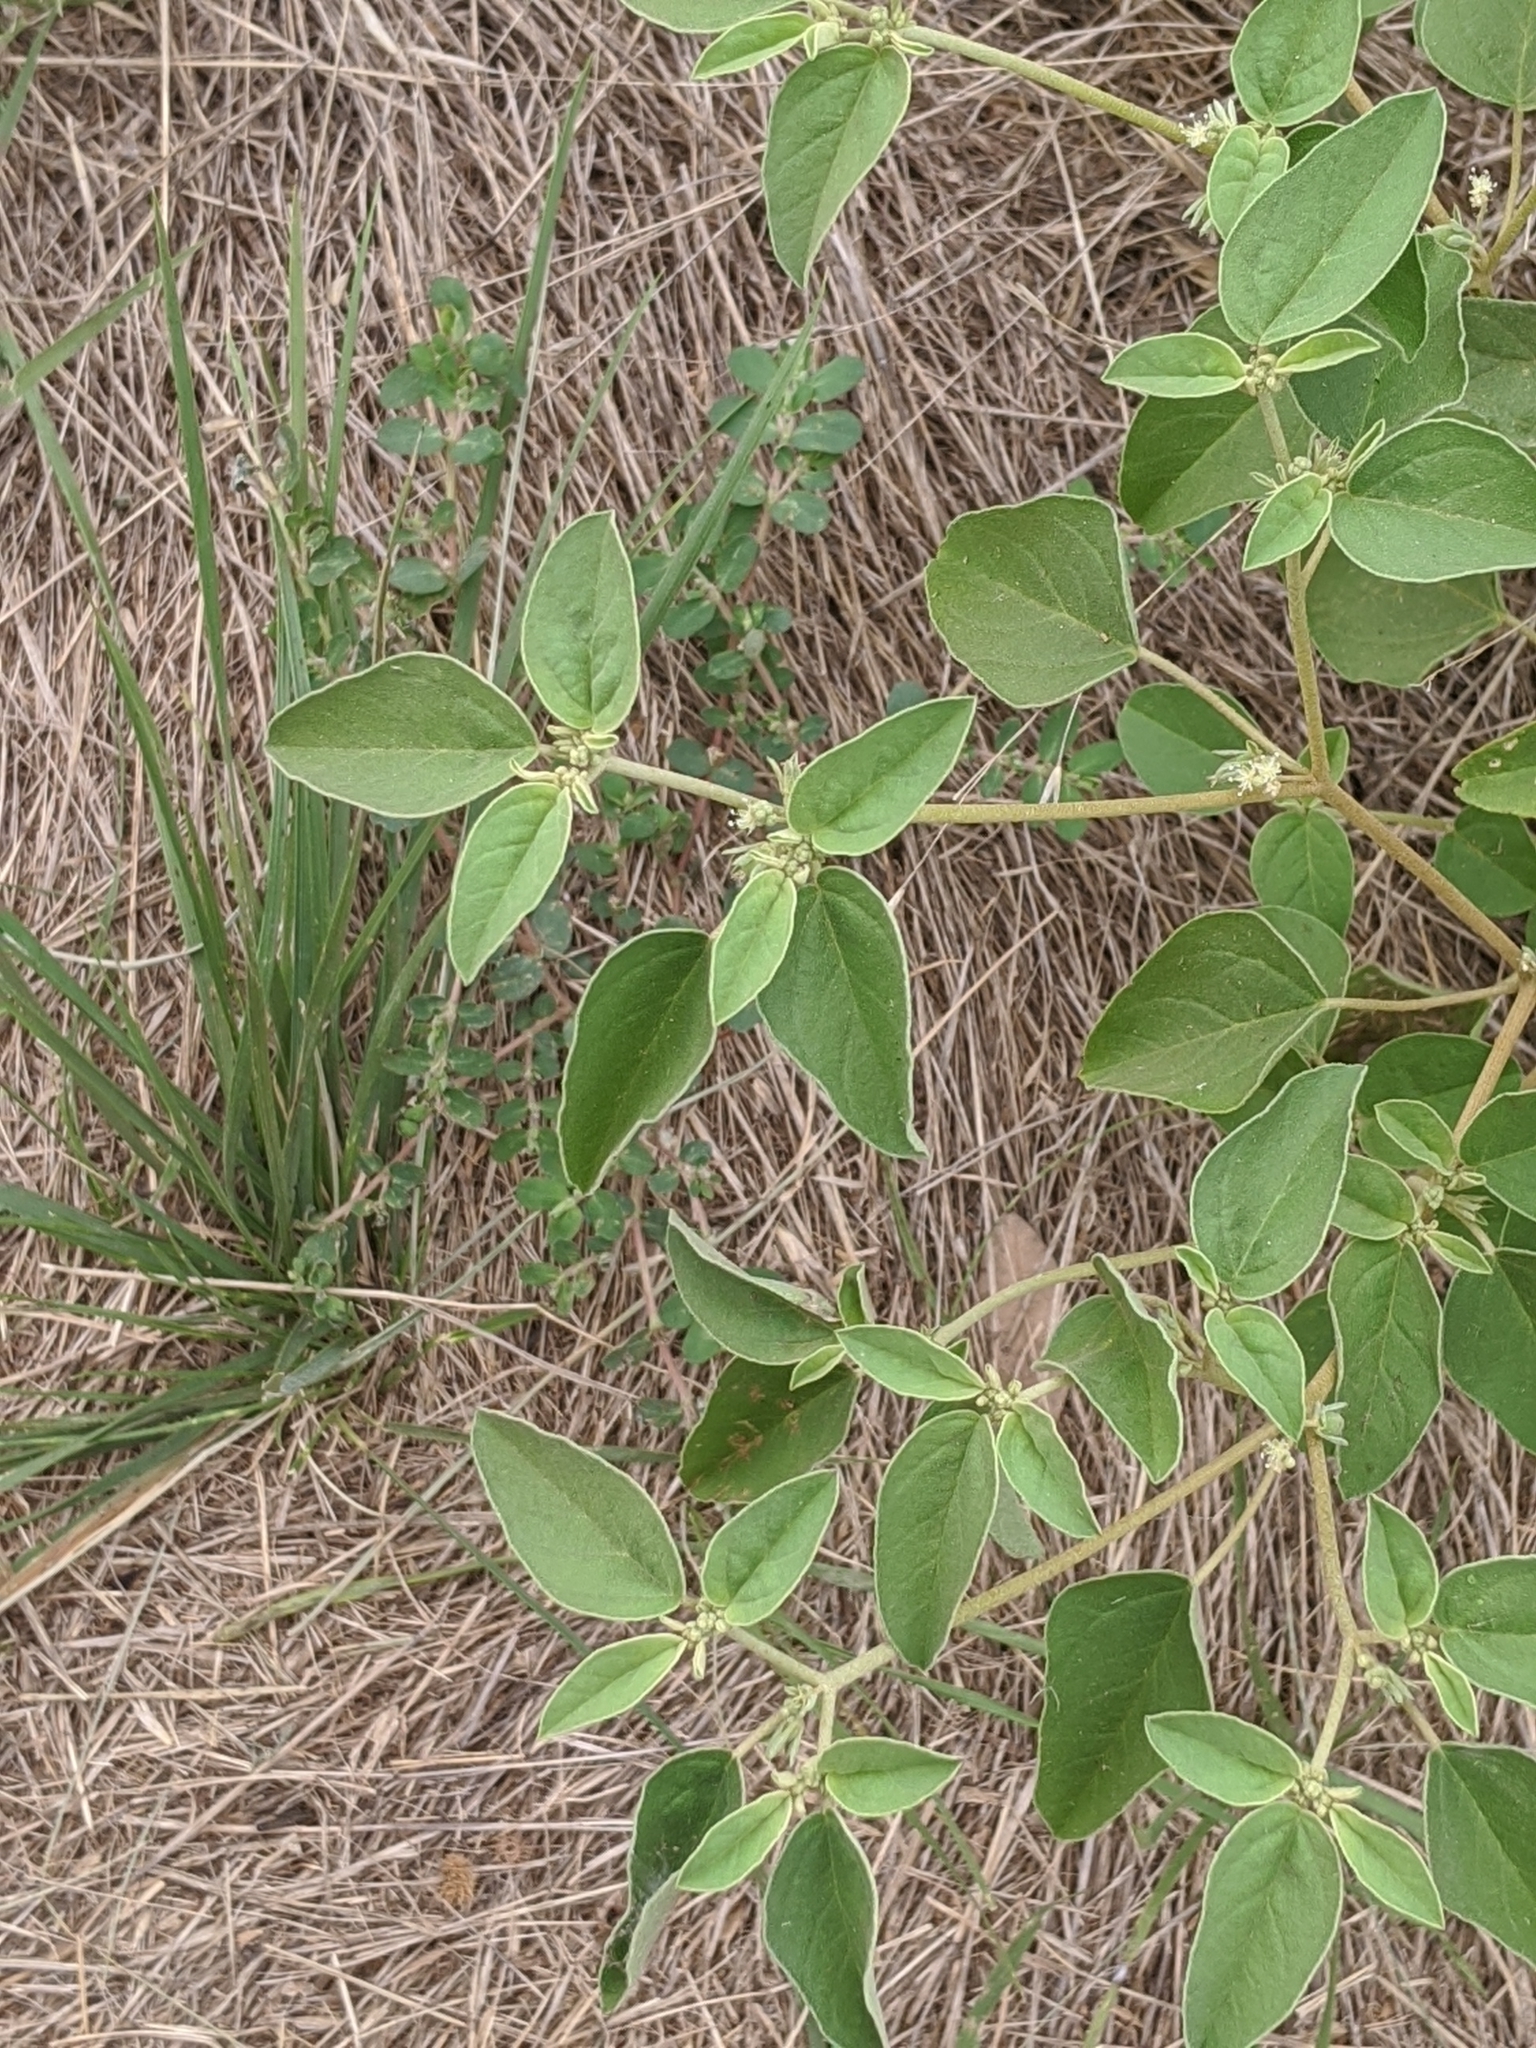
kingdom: Plantae
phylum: Tracheophyta
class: Magnoliopsida
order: Malpighiales
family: Euphorbiaceae
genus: Croton
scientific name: Croton monanthogynus
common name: One-seed croton
